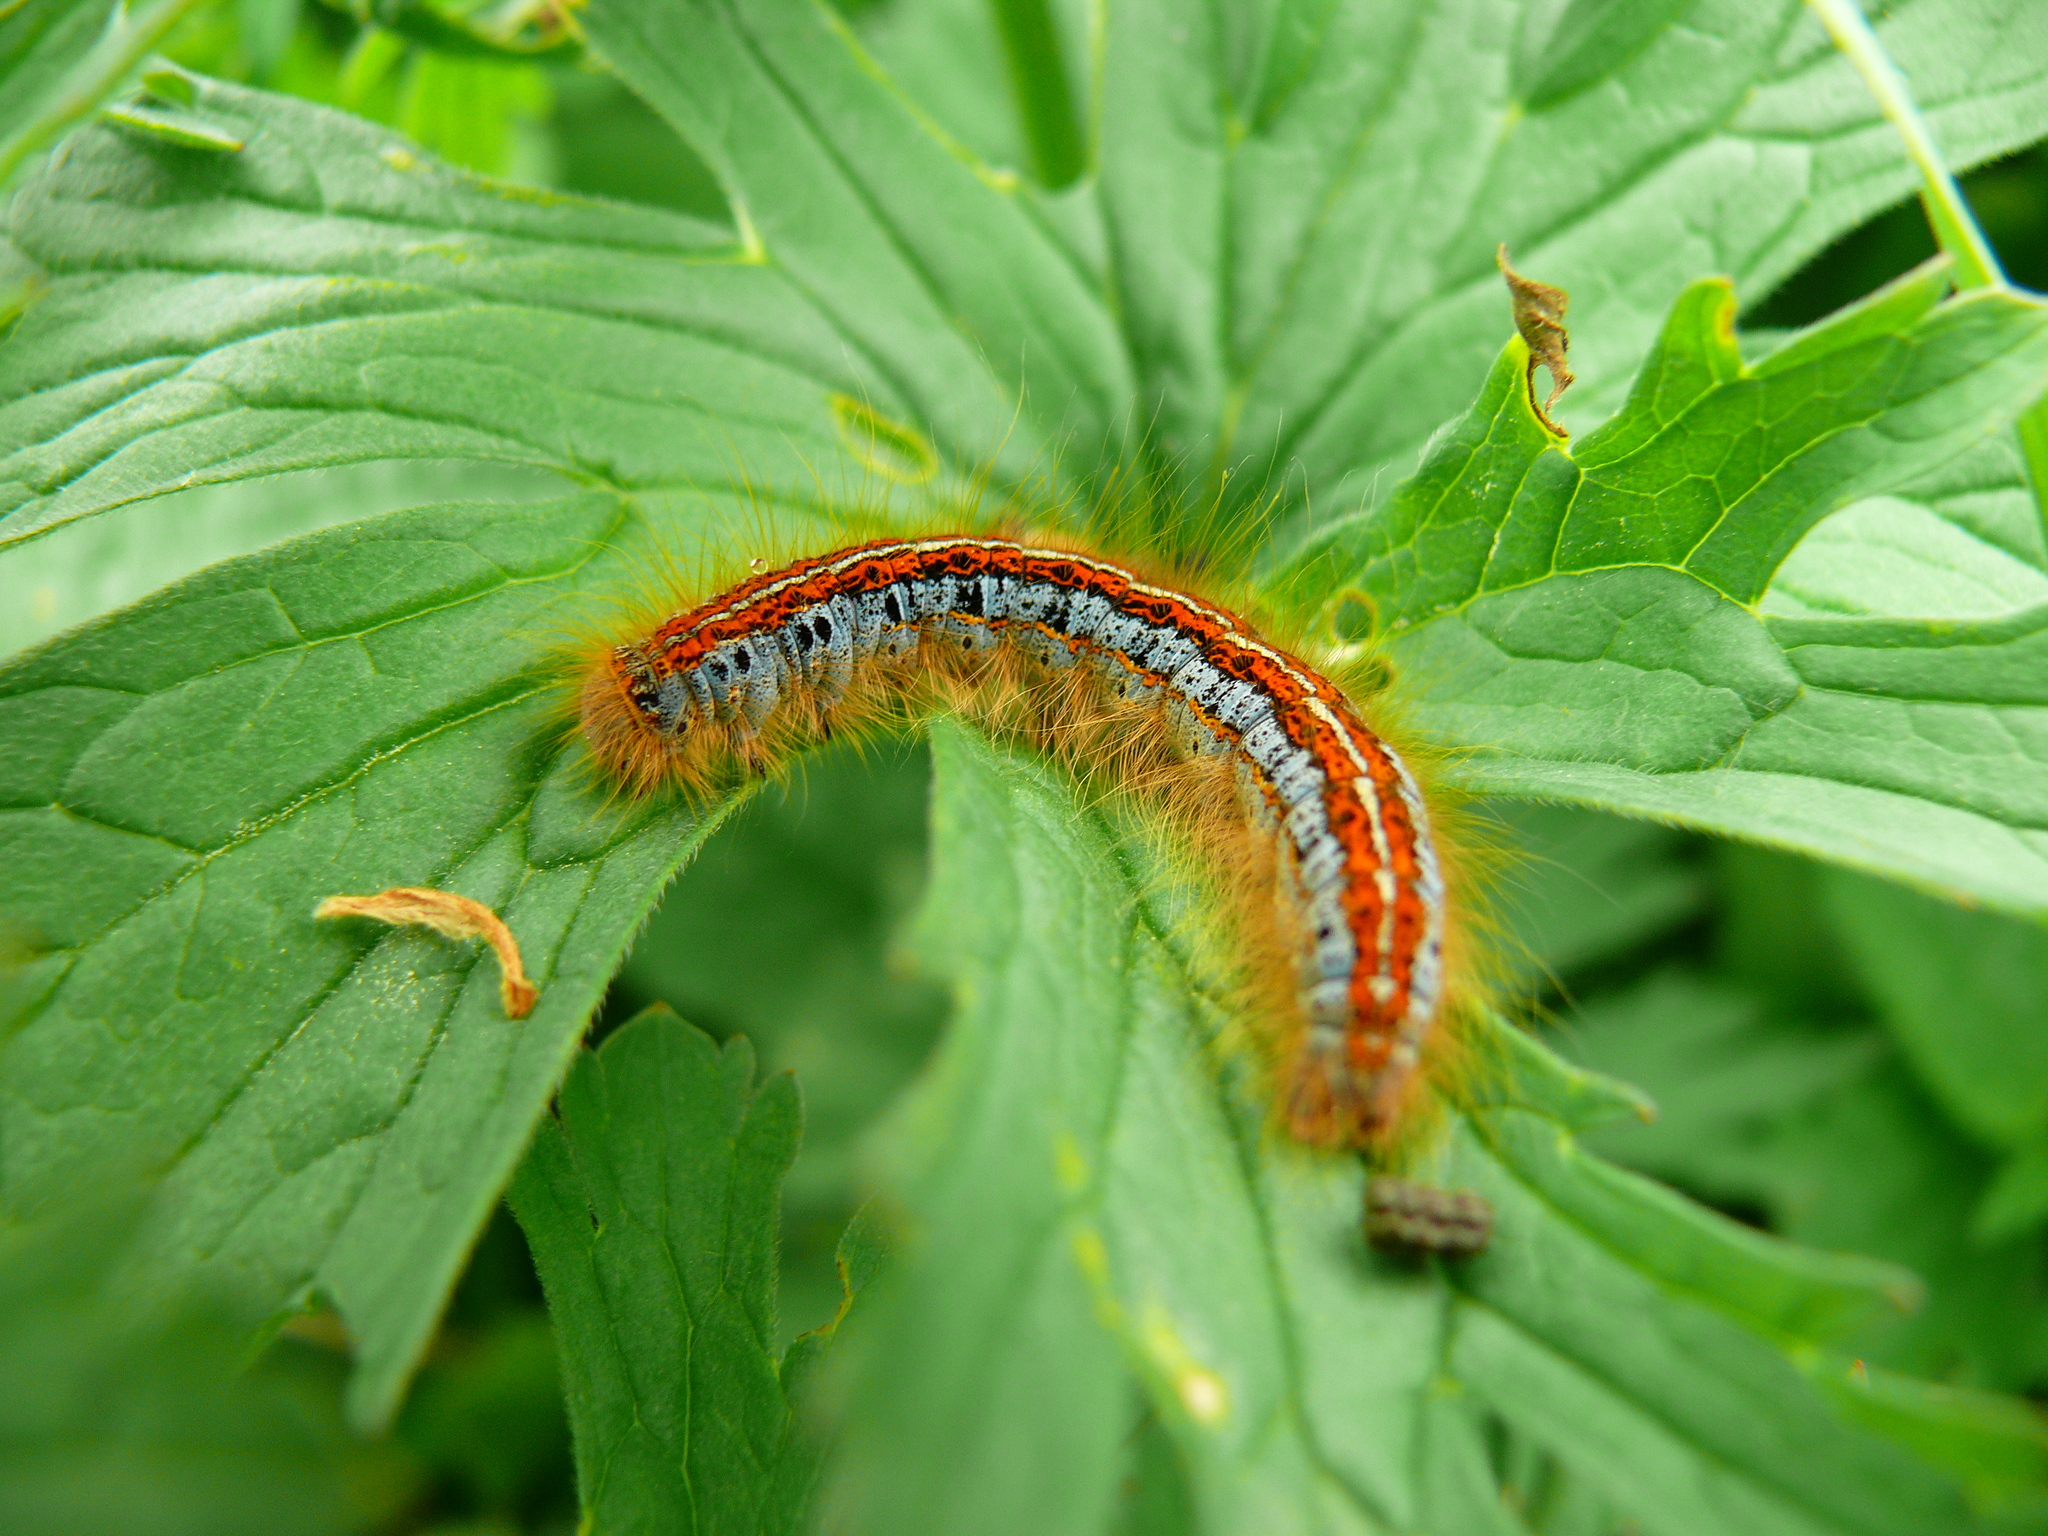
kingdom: Animalia
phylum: Arthropoda
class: Insecta
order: Lepidoptera
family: Lasiocampidae
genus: Malacosoma
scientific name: Malacosoma castrense
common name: Ground lackey
